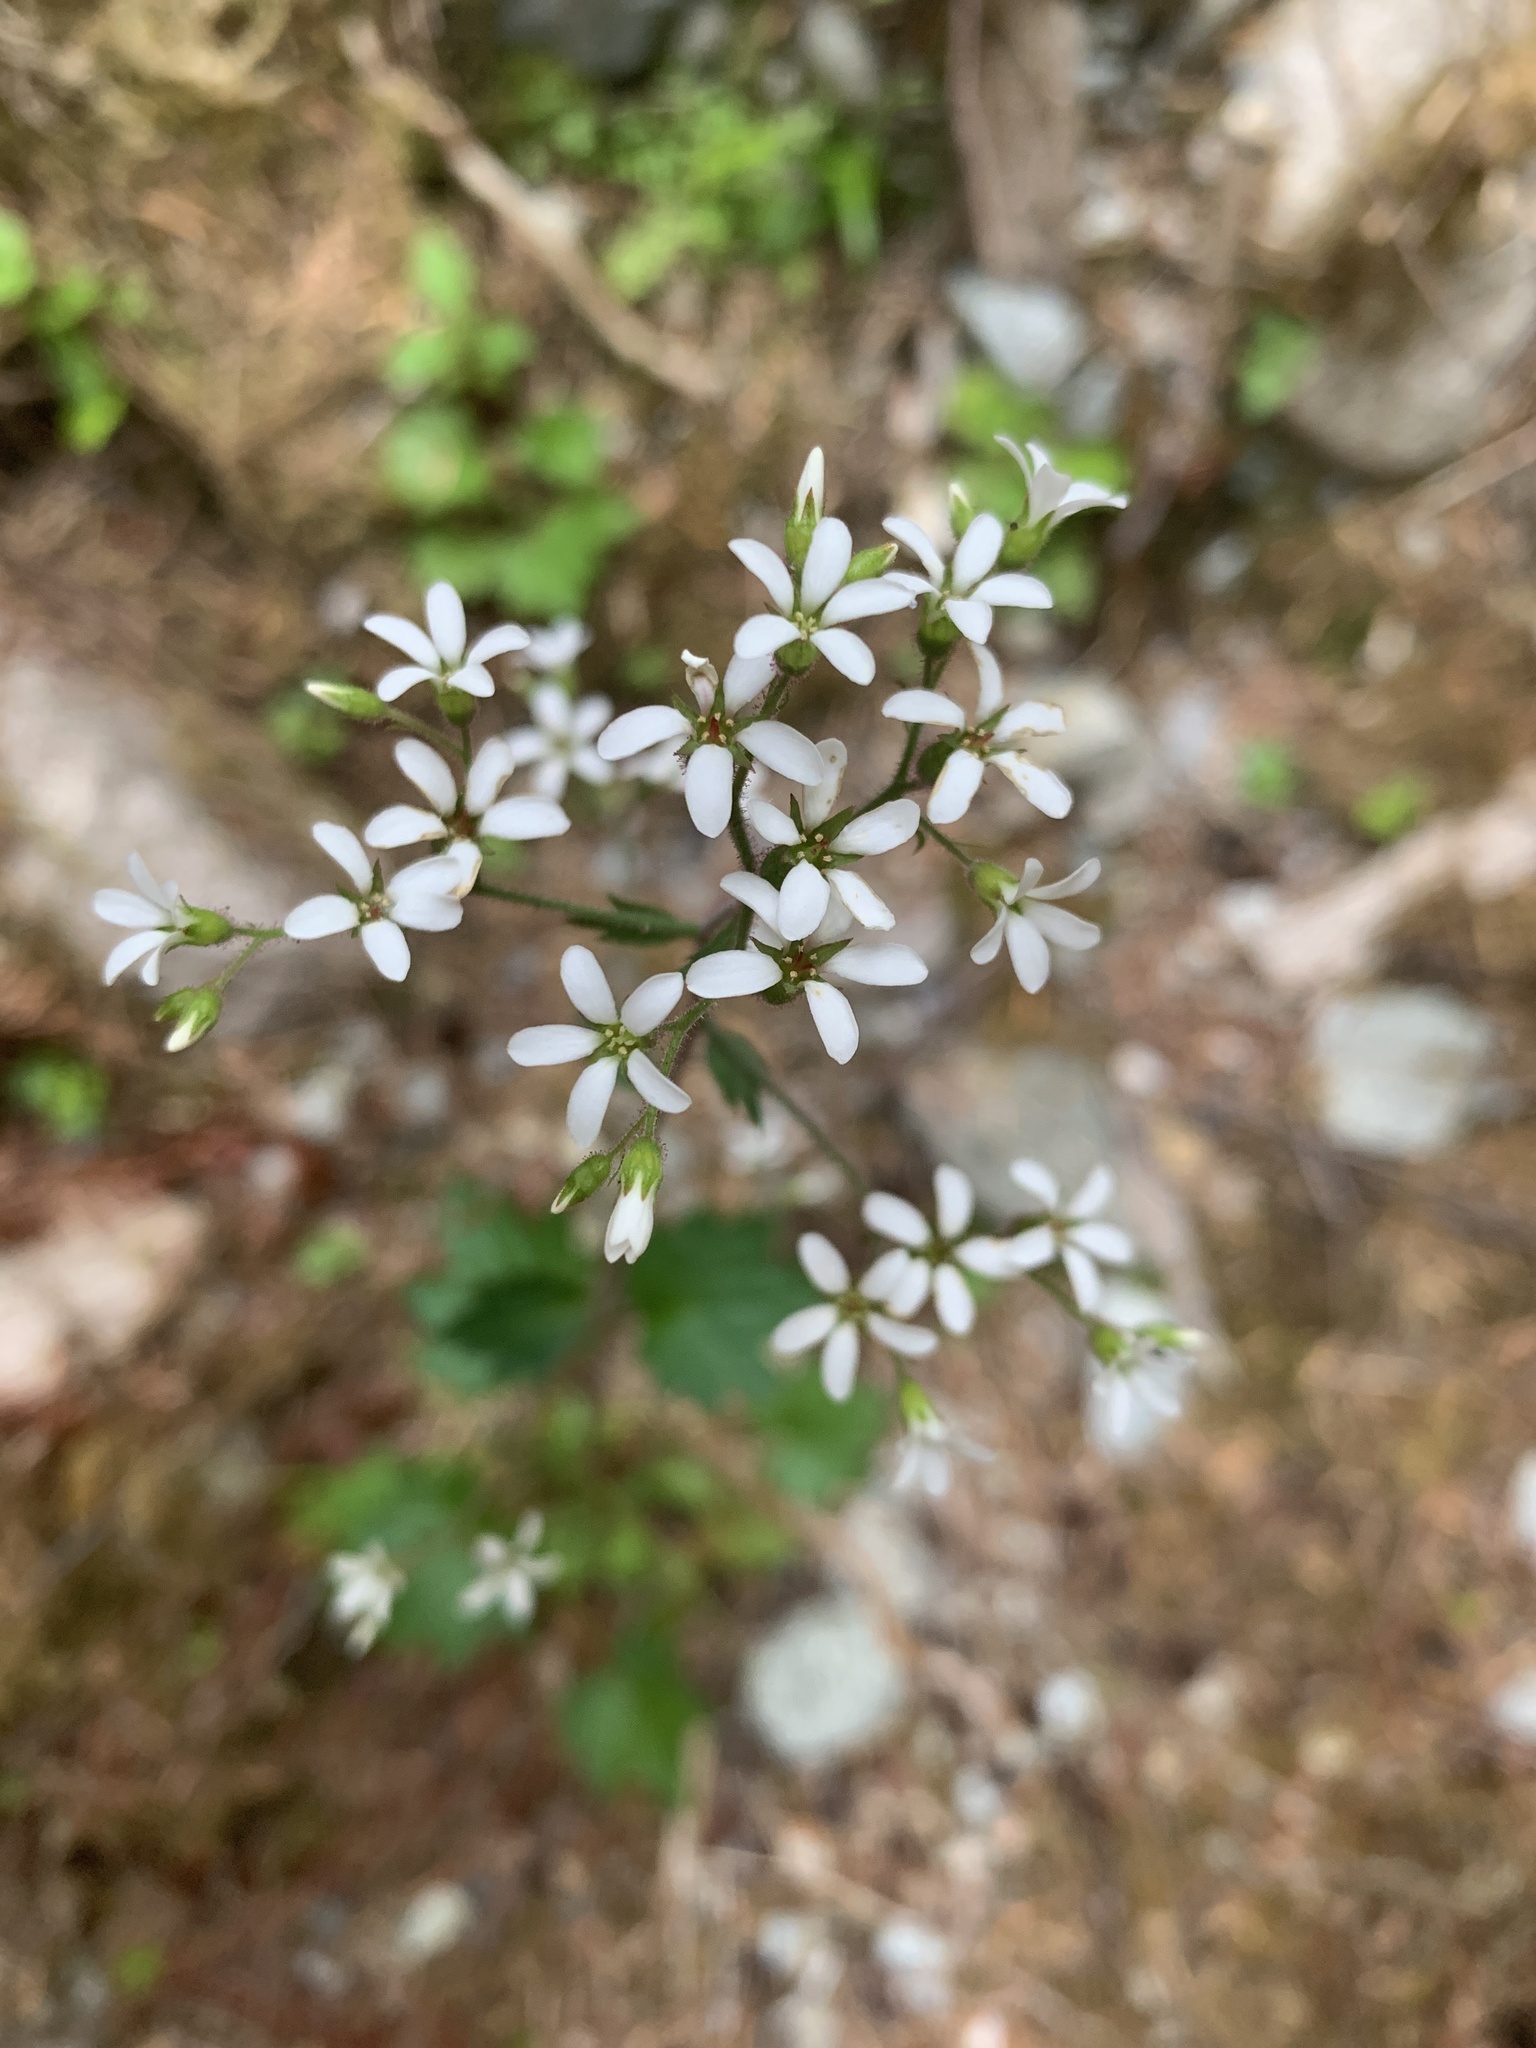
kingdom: Plantae
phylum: Tracheophyta
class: Magnoliopsida
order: Saxifragales
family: Saxifragaceae
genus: Boykinia
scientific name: Boykinia occidentalis
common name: Coast boykinia
